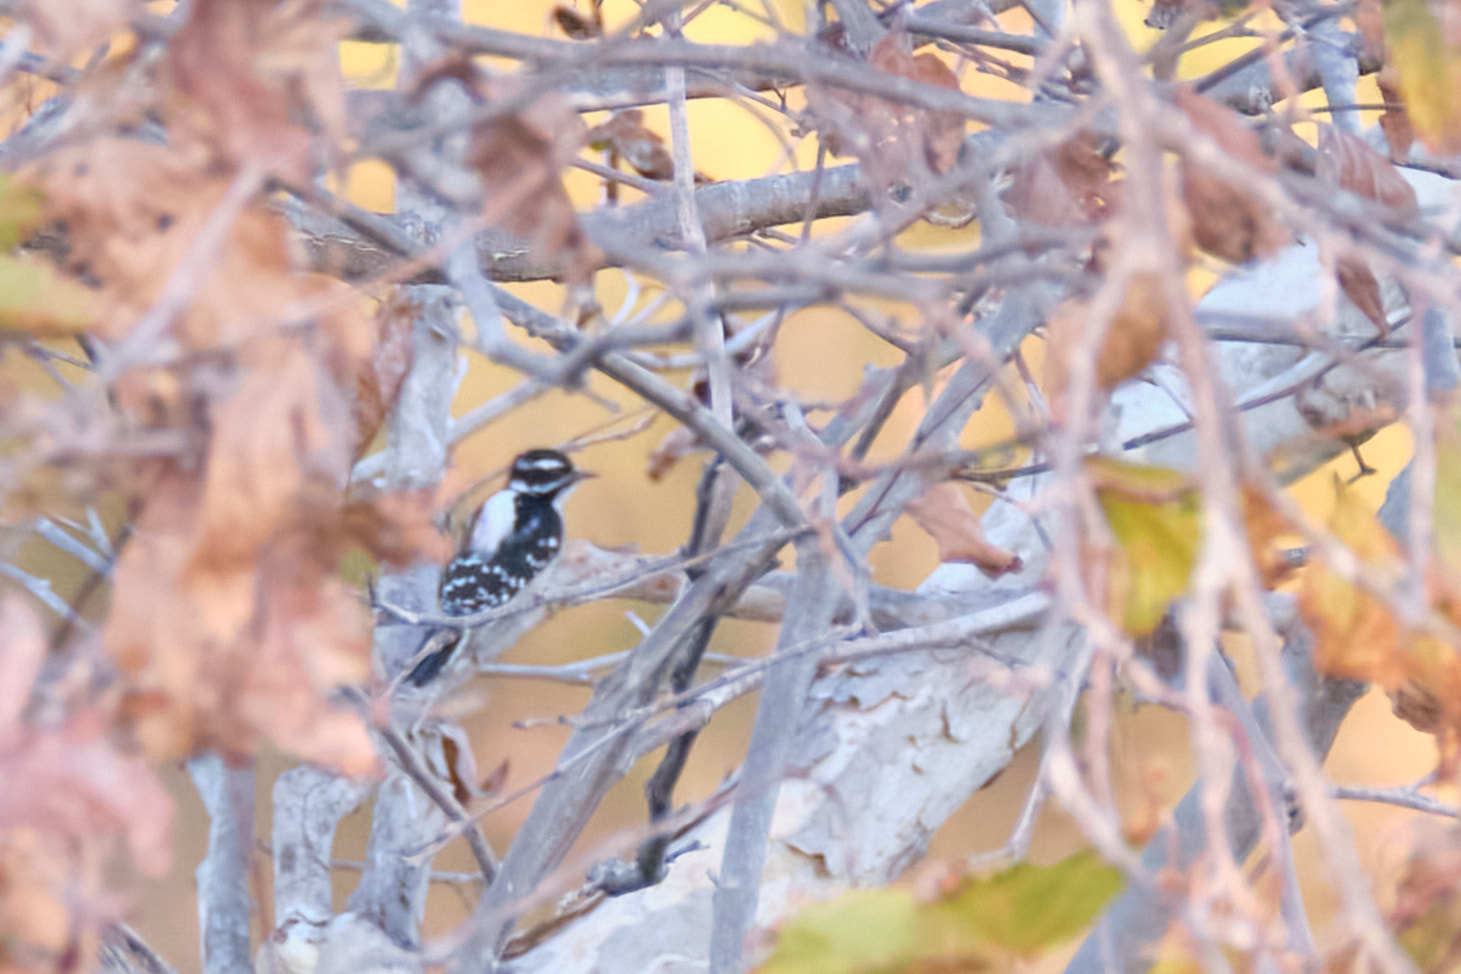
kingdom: Animalia
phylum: Chordata
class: Aves
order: Piciformes
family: Picidae
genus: Dryobates
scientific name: Dryobates pubescens
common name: Downy woodpecker
